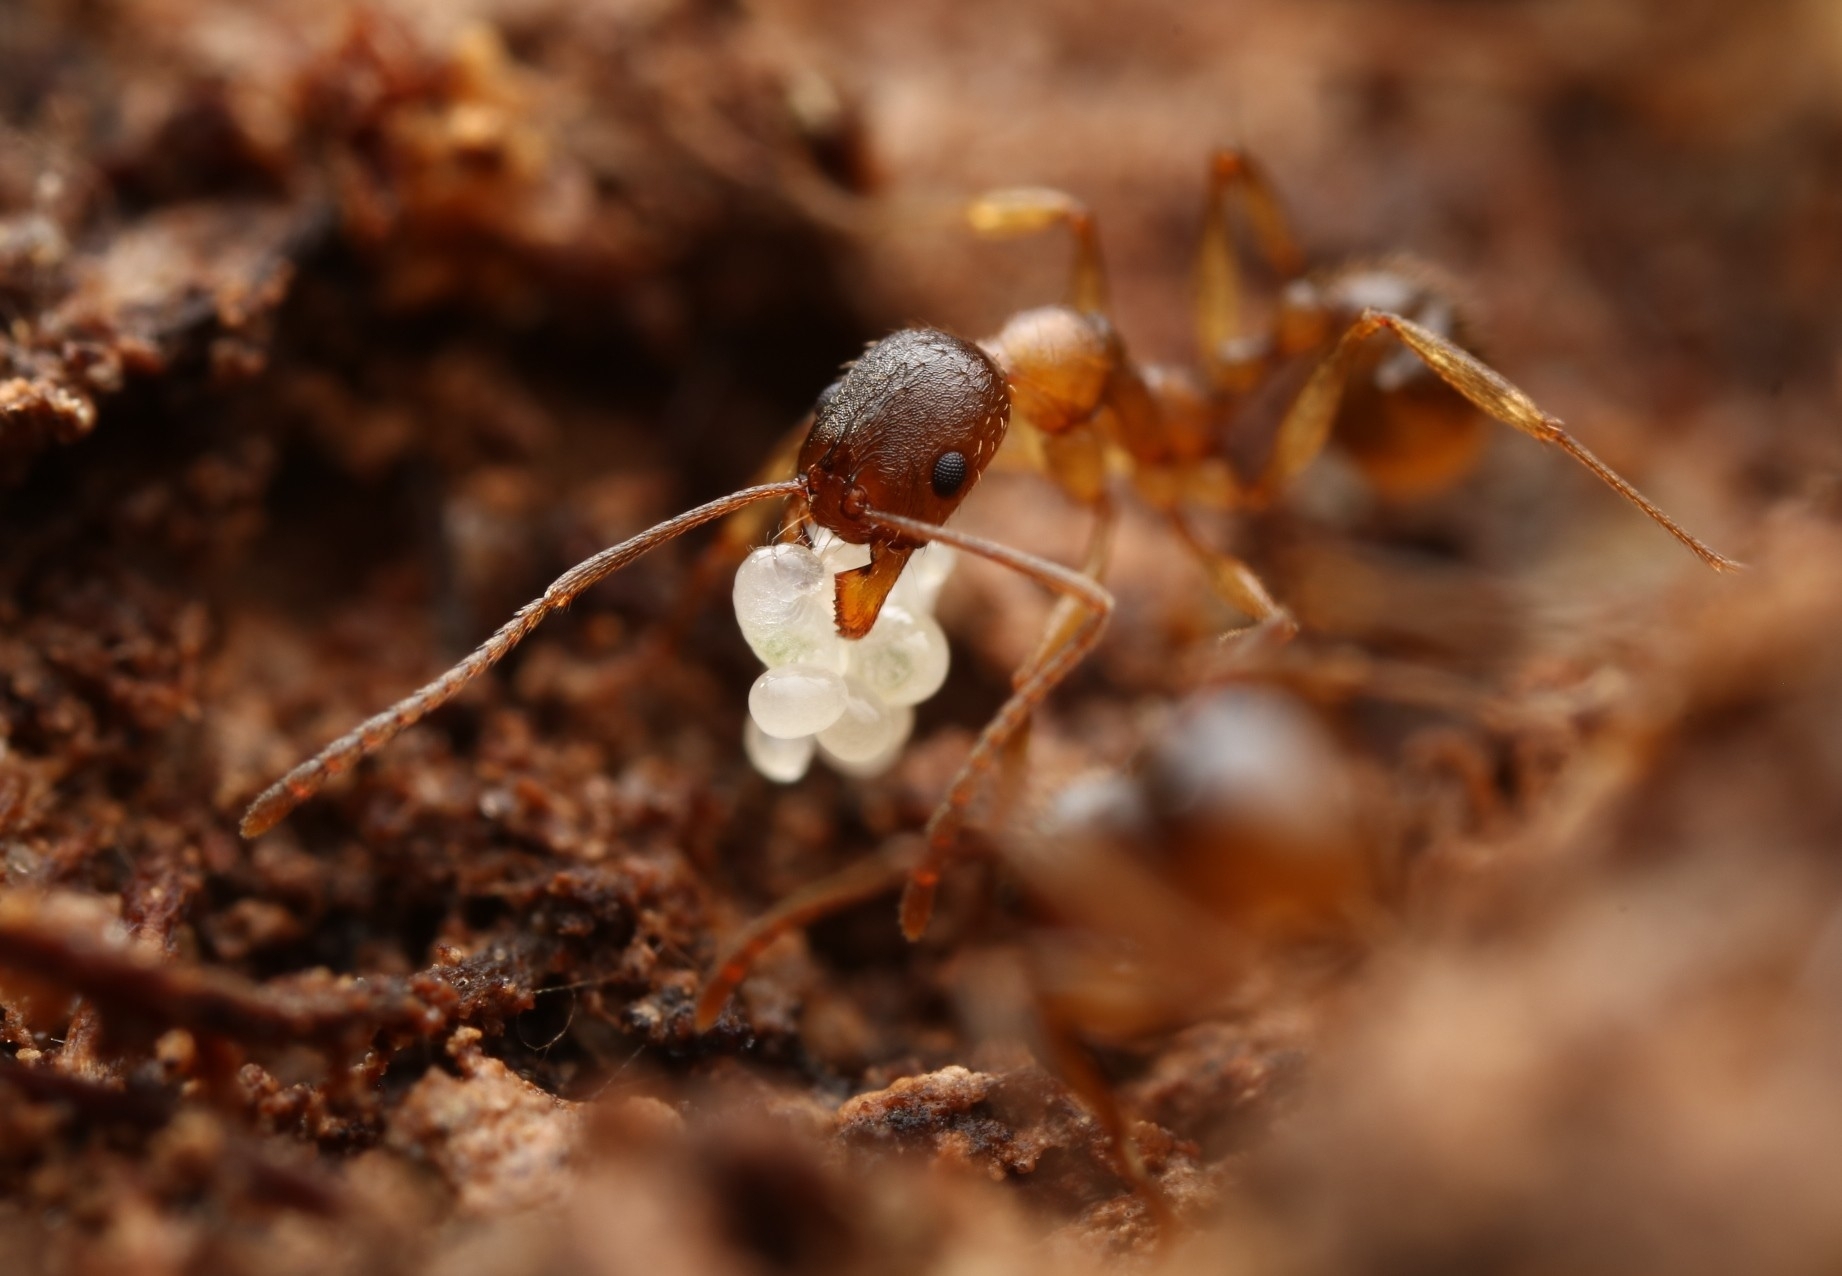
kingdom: Animalia
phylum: Arthropoda
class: Insecta
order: Hymenoptera
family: Formicidae
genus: Aphaenogaster
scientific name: Aphaenogaster rudis
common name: Winnow ant
